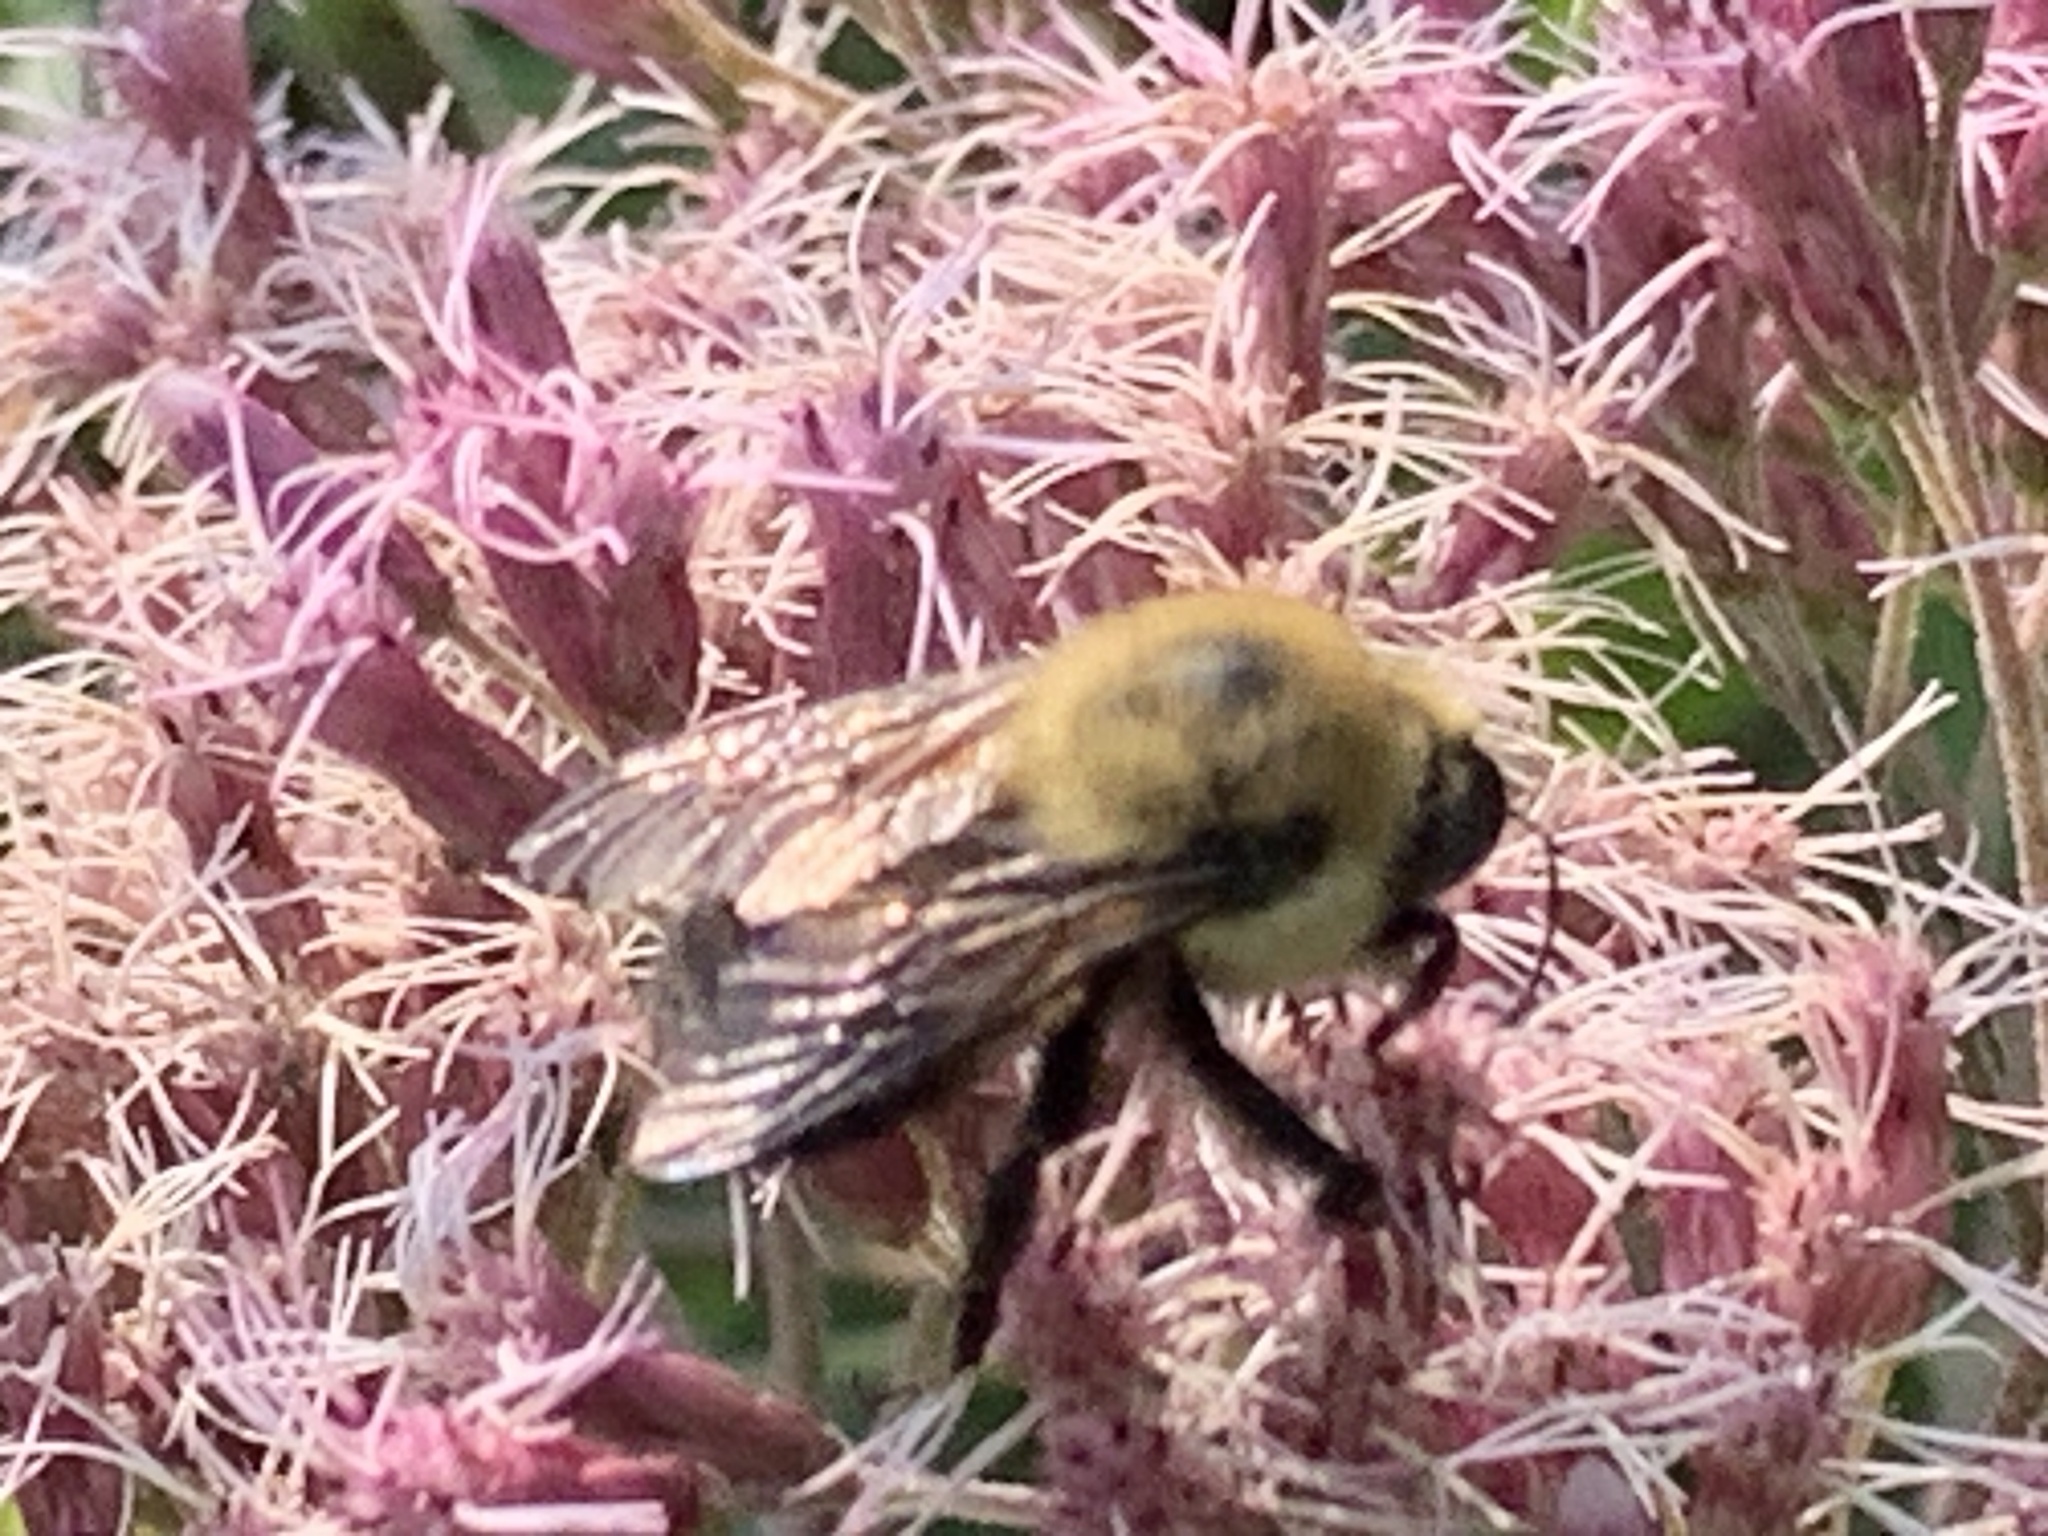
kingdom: Animalia
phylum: Arthropoda
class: Insecta
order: Hymenoptera
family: Apidae
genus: Bombus
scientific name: Bombus griseocollis
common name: Brown-belted bumble bee
